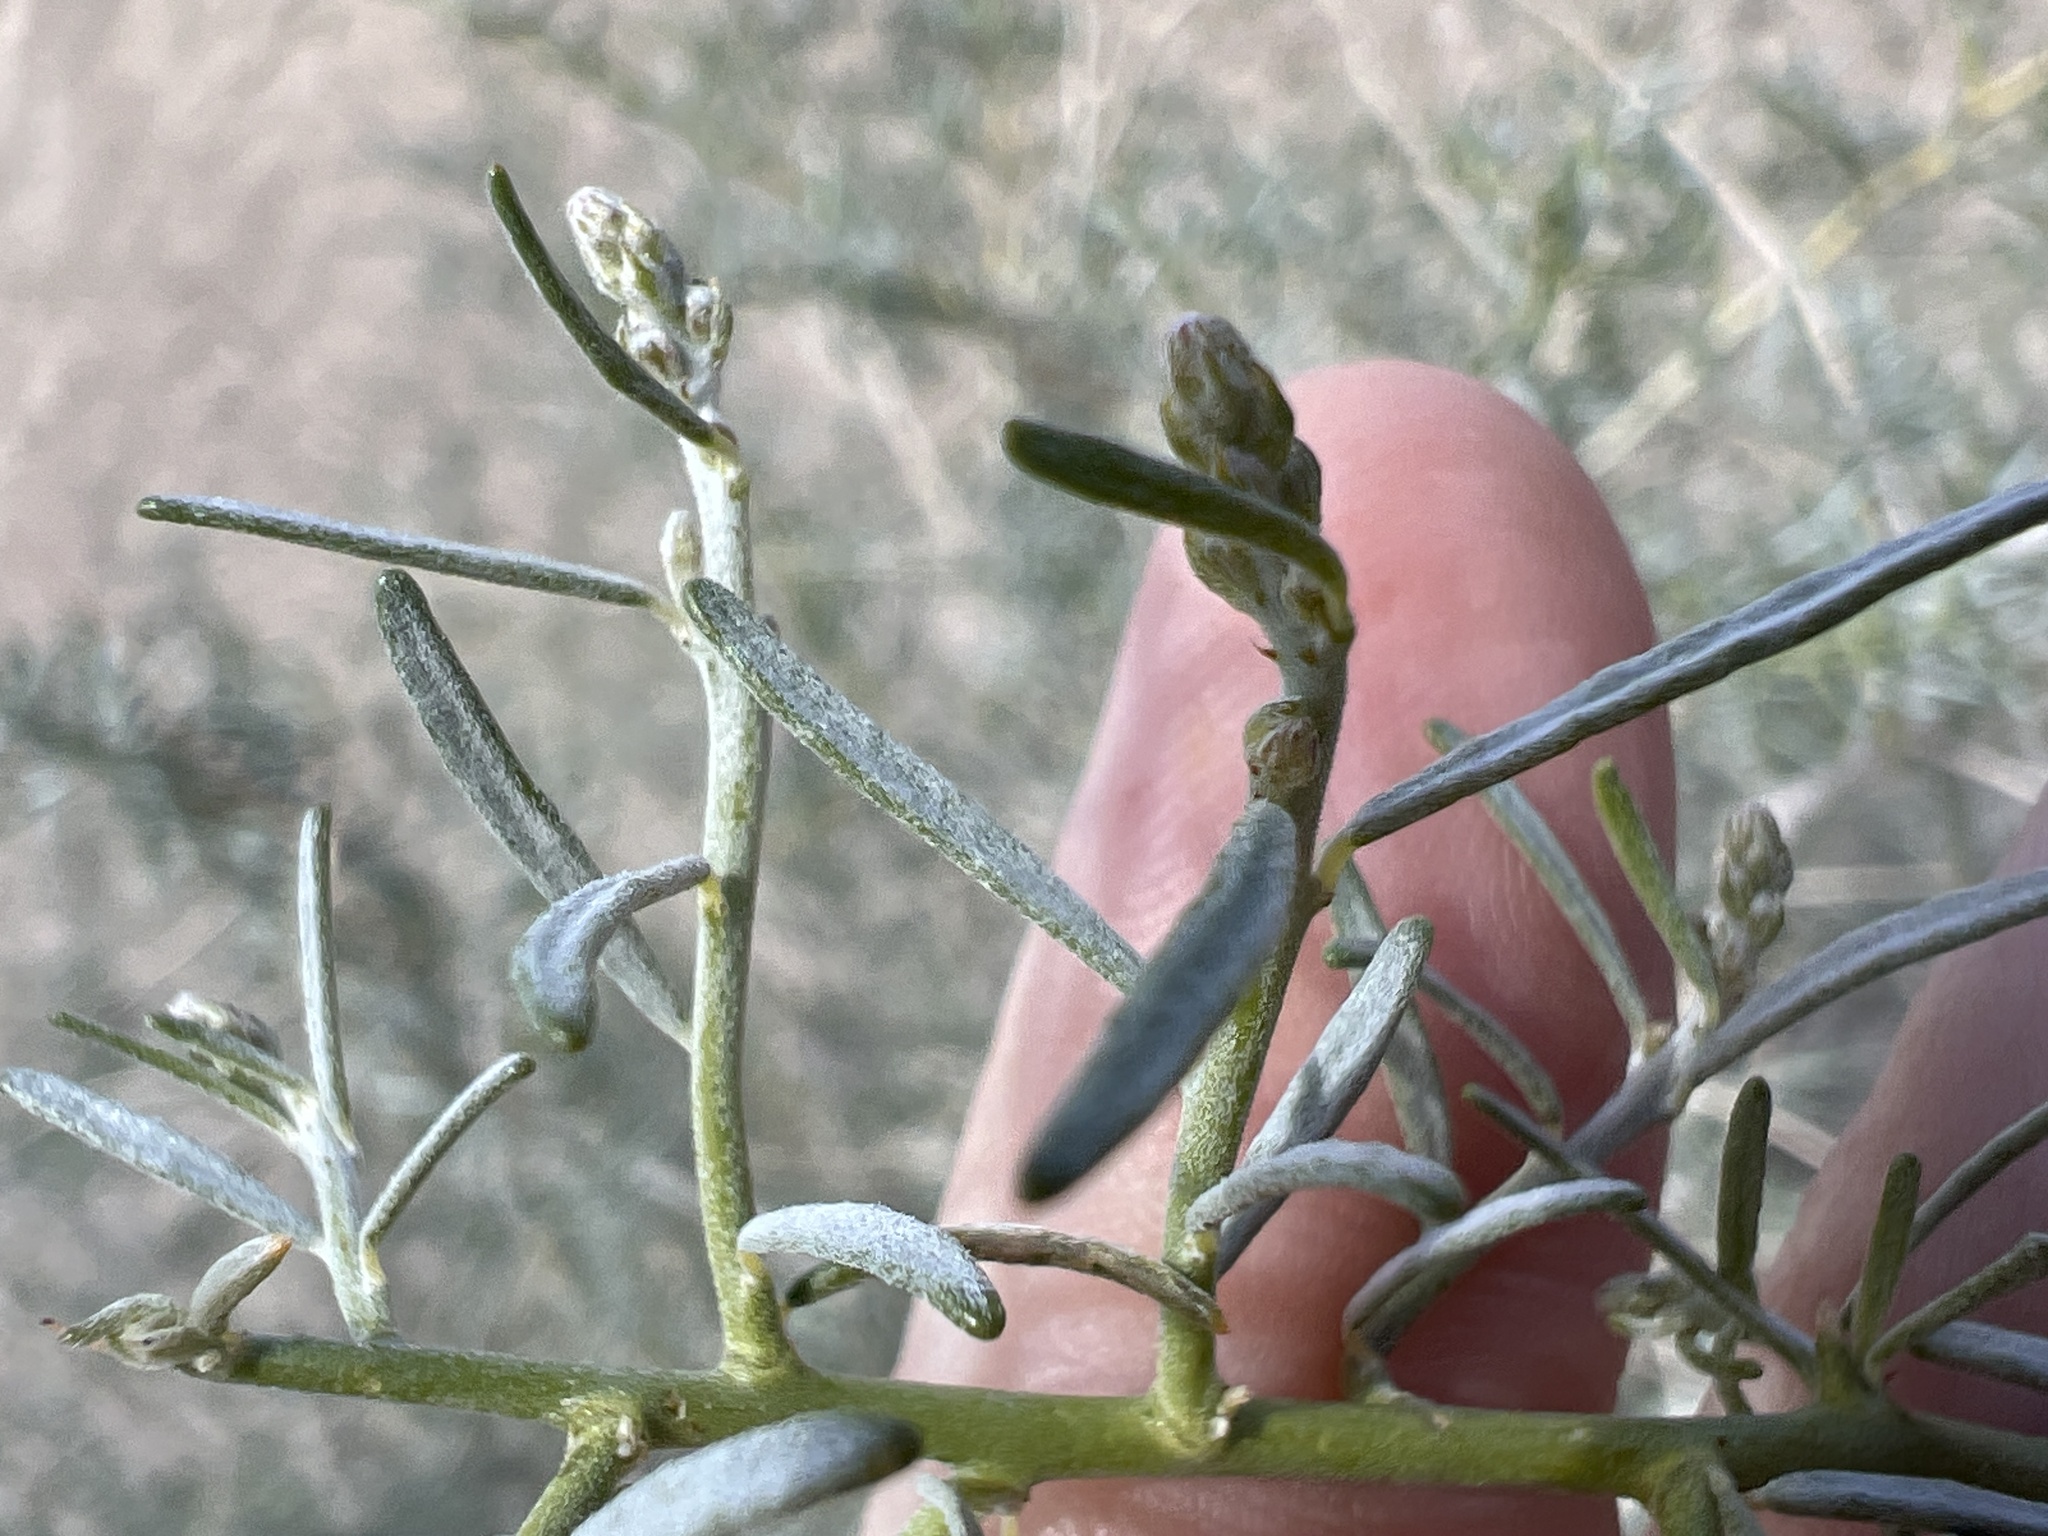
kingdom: Plantae
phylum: Tracheophyta
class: Magnoliopsida
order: Fabales
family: Fabaceae
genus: Psorothamnus
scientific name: Psorothamnus schottii
